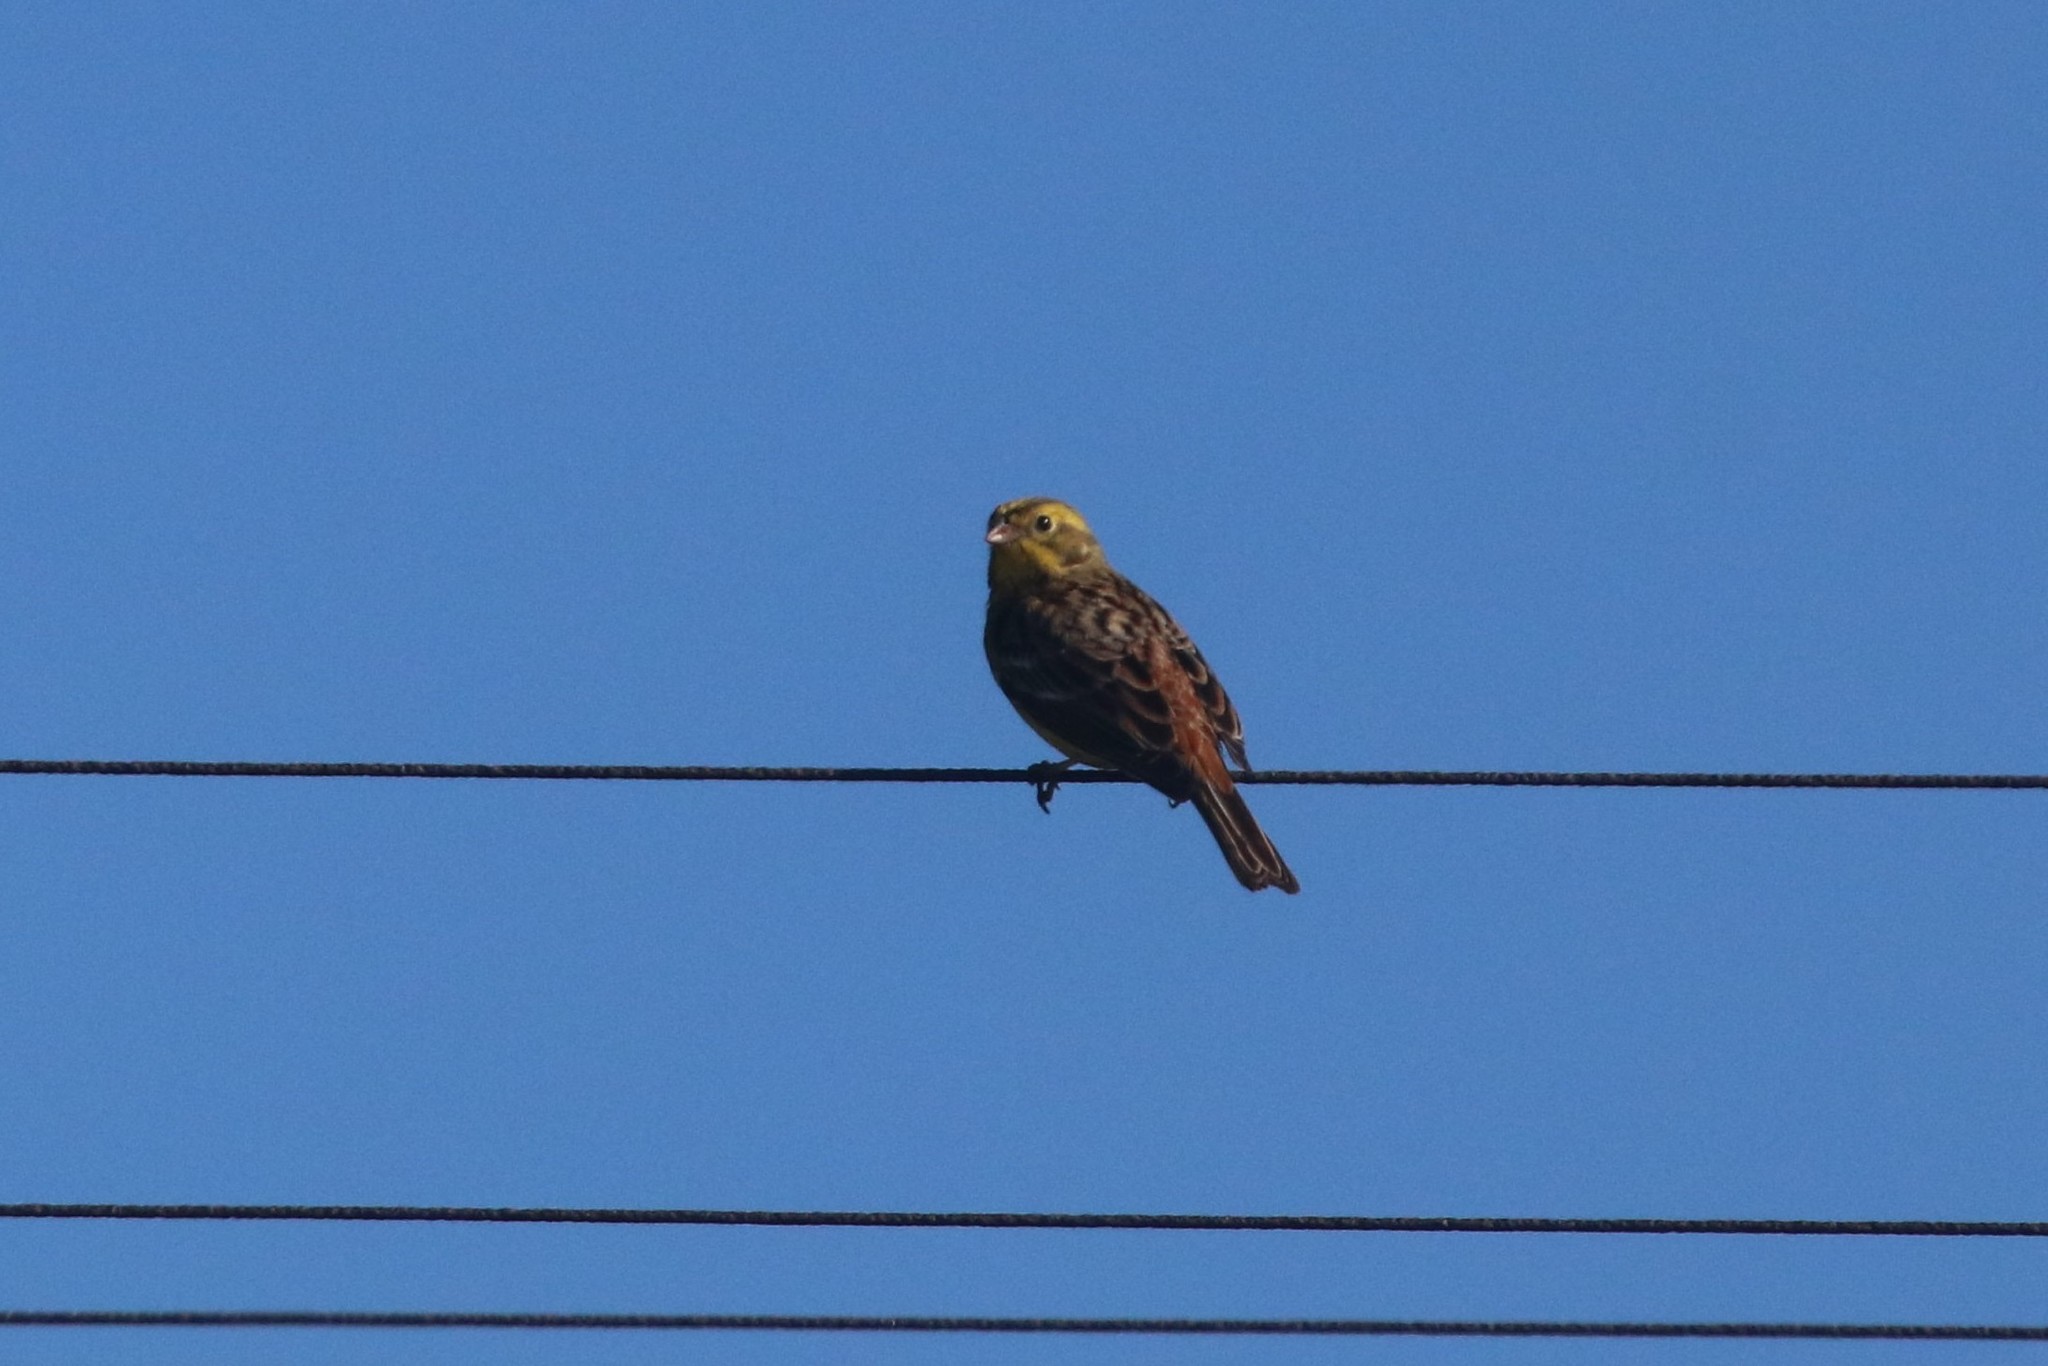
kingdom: Animalia
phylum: Chordata
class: Aves
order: Passeriformes
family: Emberizidae
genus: Emberiza
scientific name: Emberiza citrinella
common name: Yellowhammer
